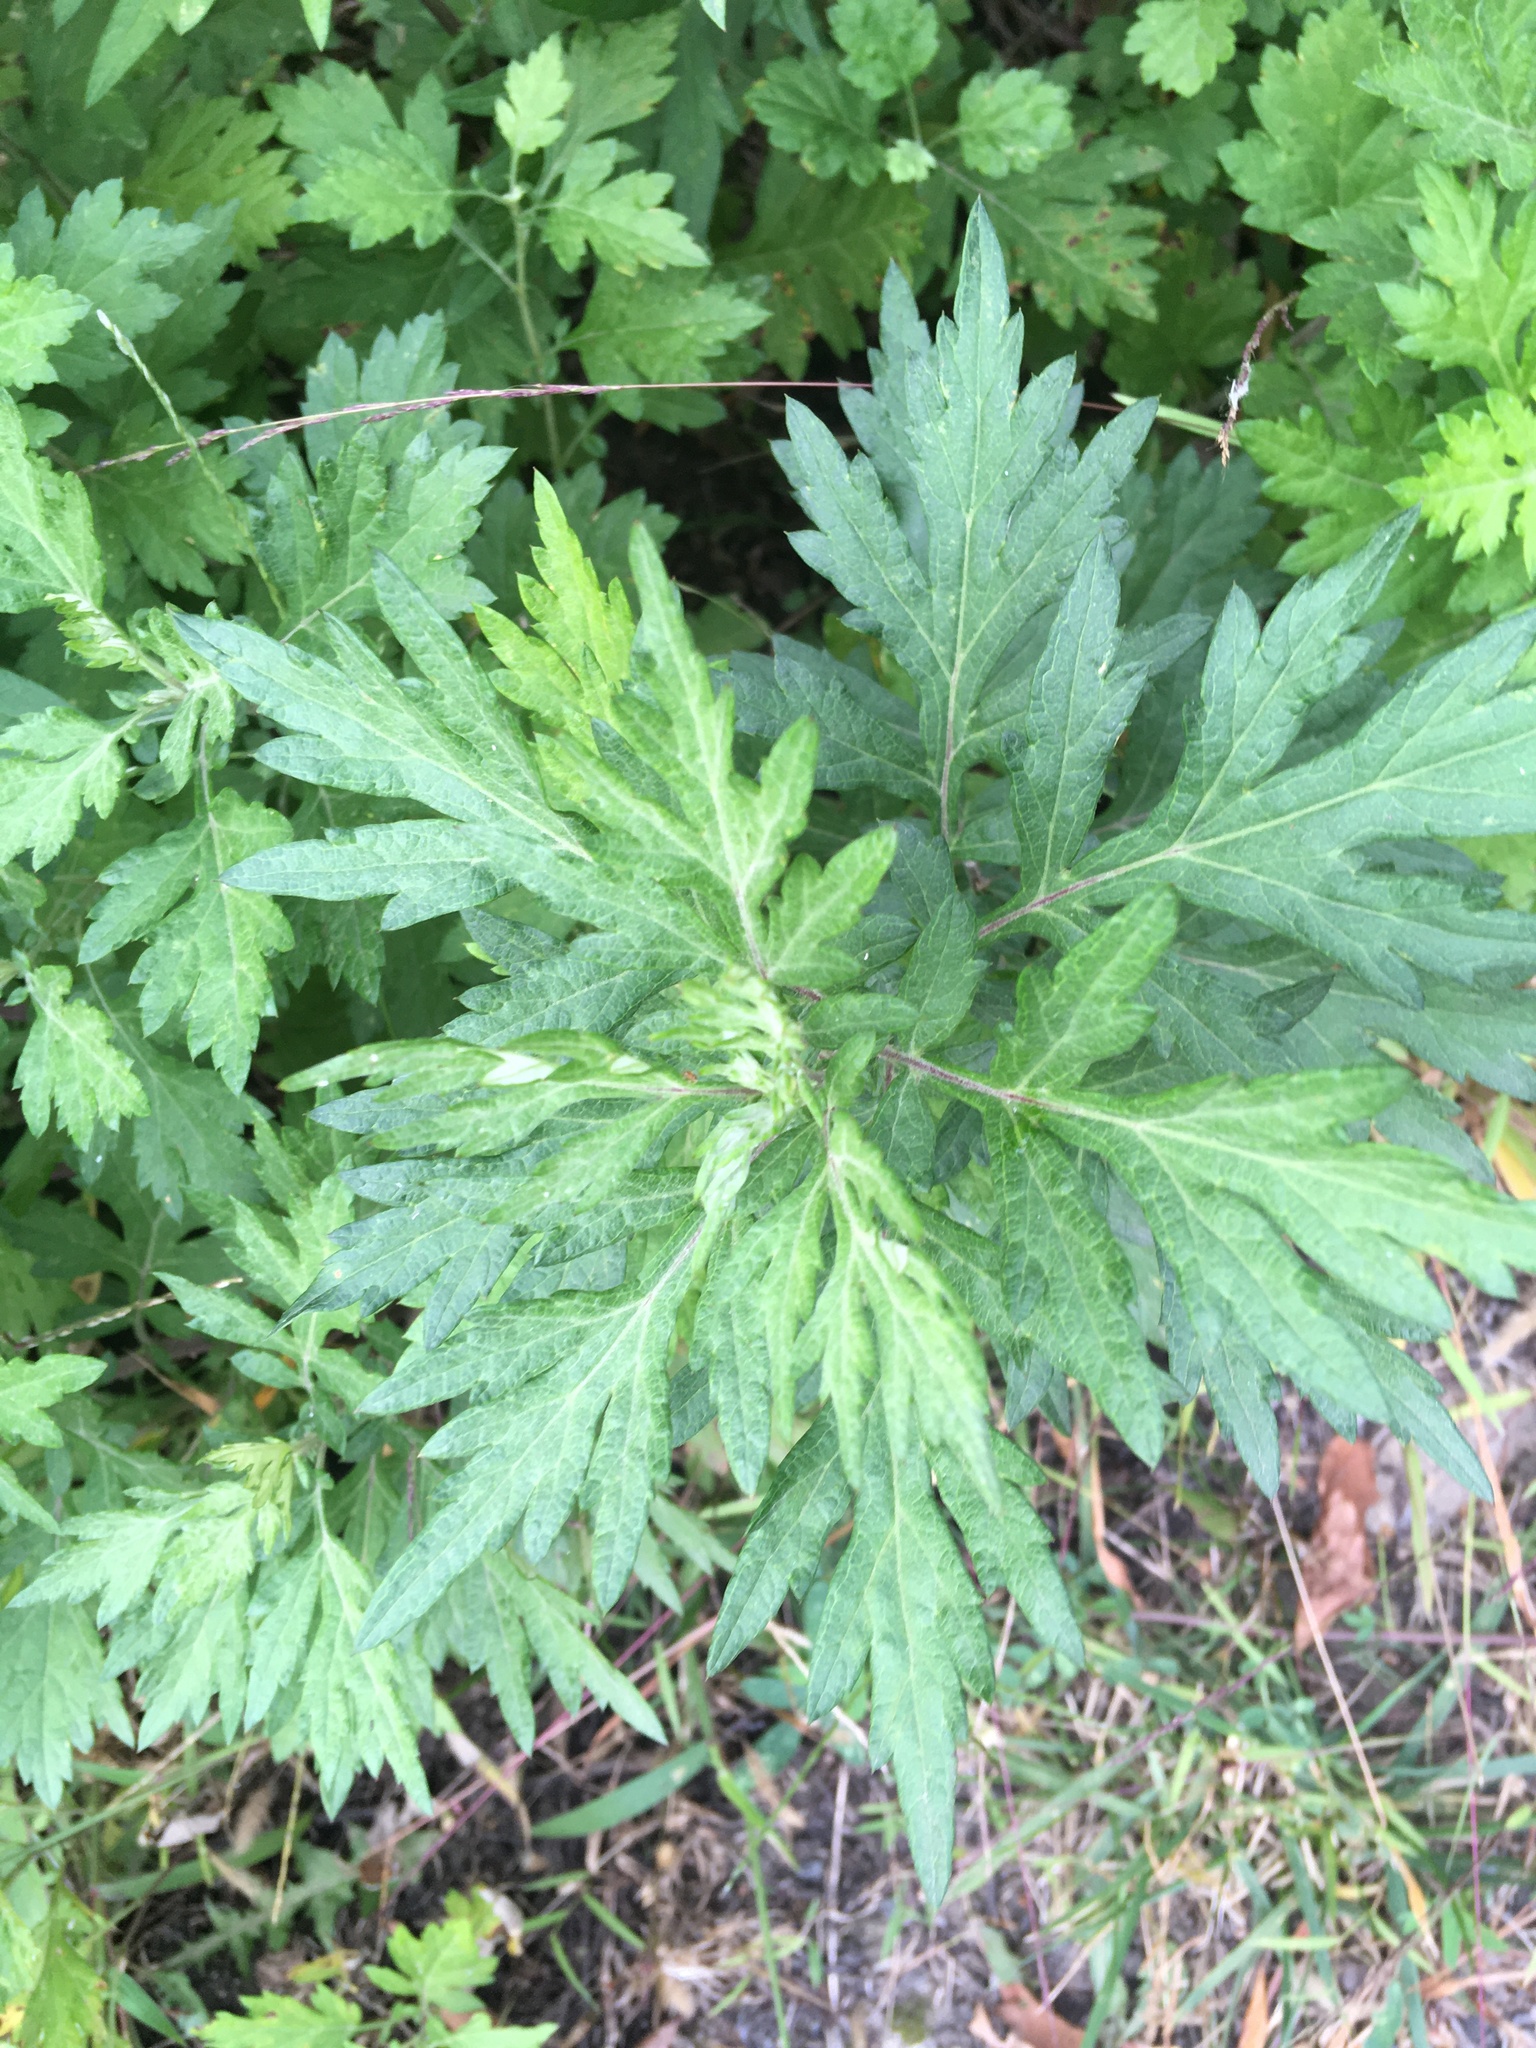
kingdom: Plantae
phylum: Tracheophyta
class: Magnoliopsida
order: Asterales
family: Asteraceae
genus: Artemisia
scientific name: Artemisia vulgaris
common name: Mugwort
